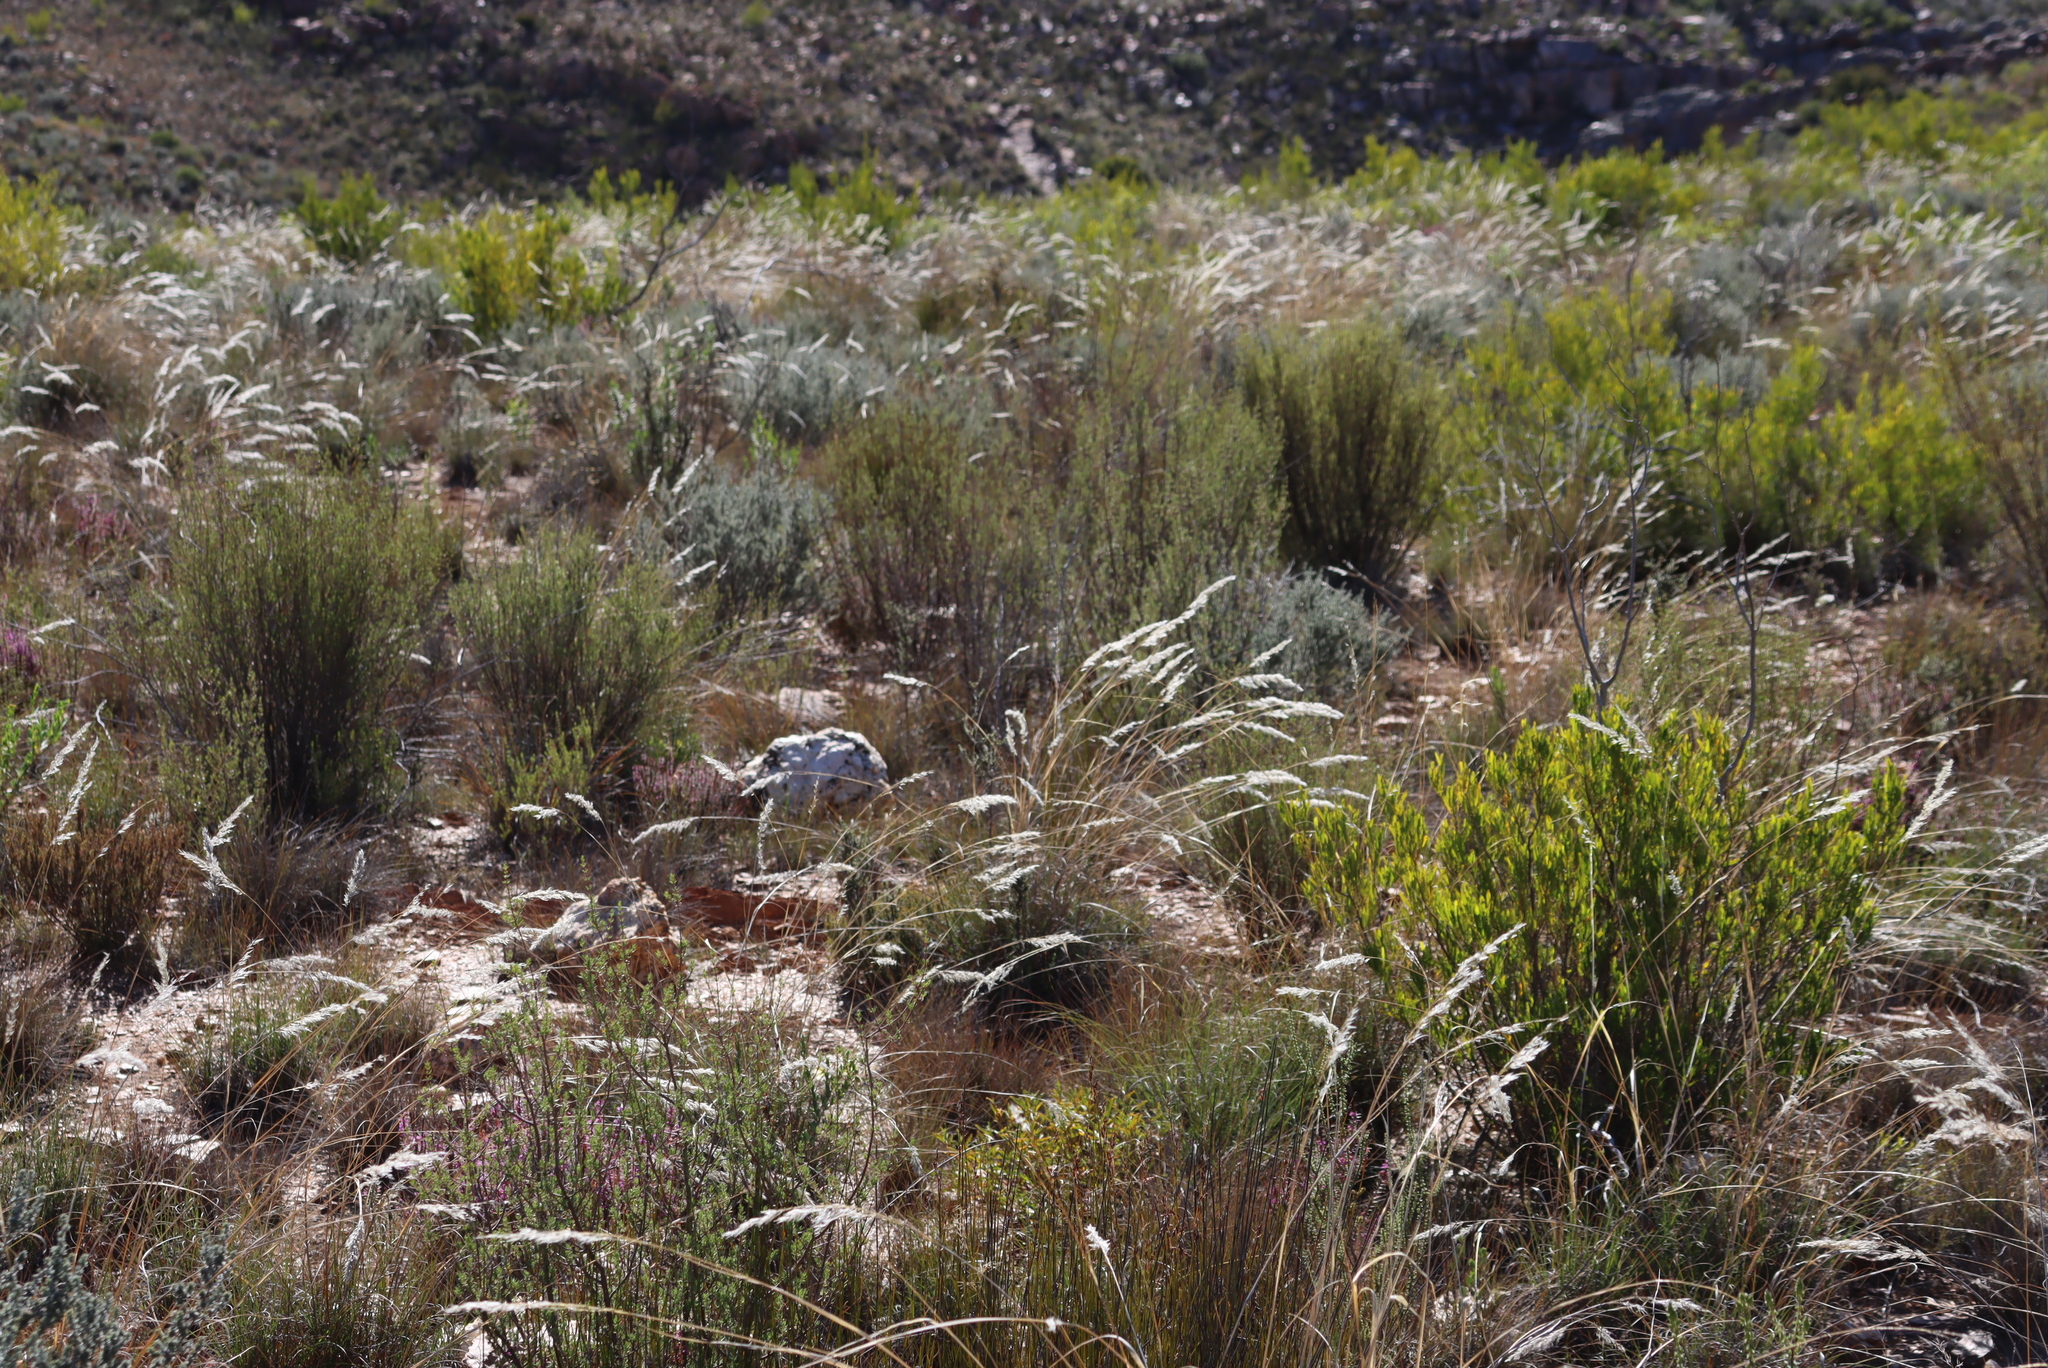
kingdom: Plantae
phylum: Tracheophyta
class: Liliopsida
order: Poales
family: Poaceae
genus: Tenaxia
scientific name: Tenaxia stricta
